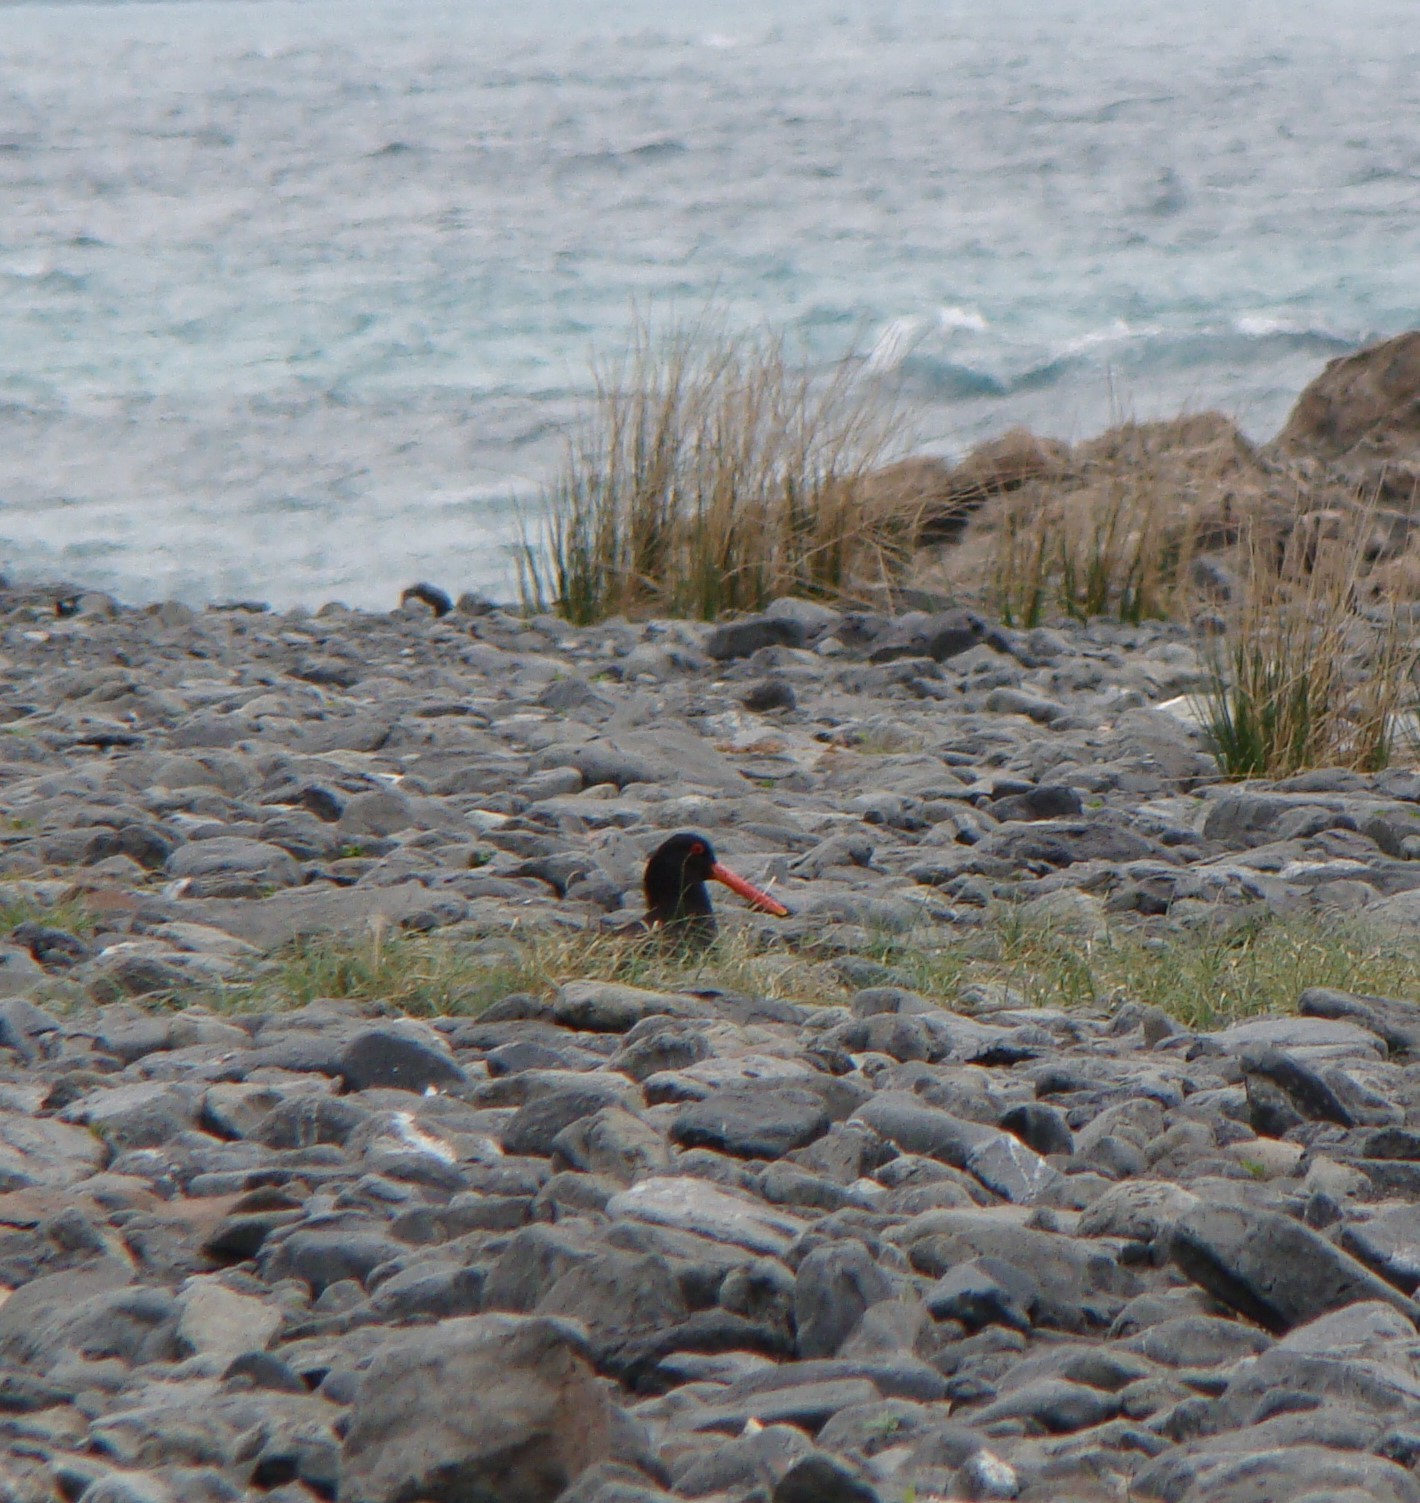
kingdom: Animalia
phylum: Chordata
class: Aves
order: Charadriiformes
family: Haematopodidae
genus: Haematopus
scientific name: Haematopus unicolor
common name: Variable oystercatcher
